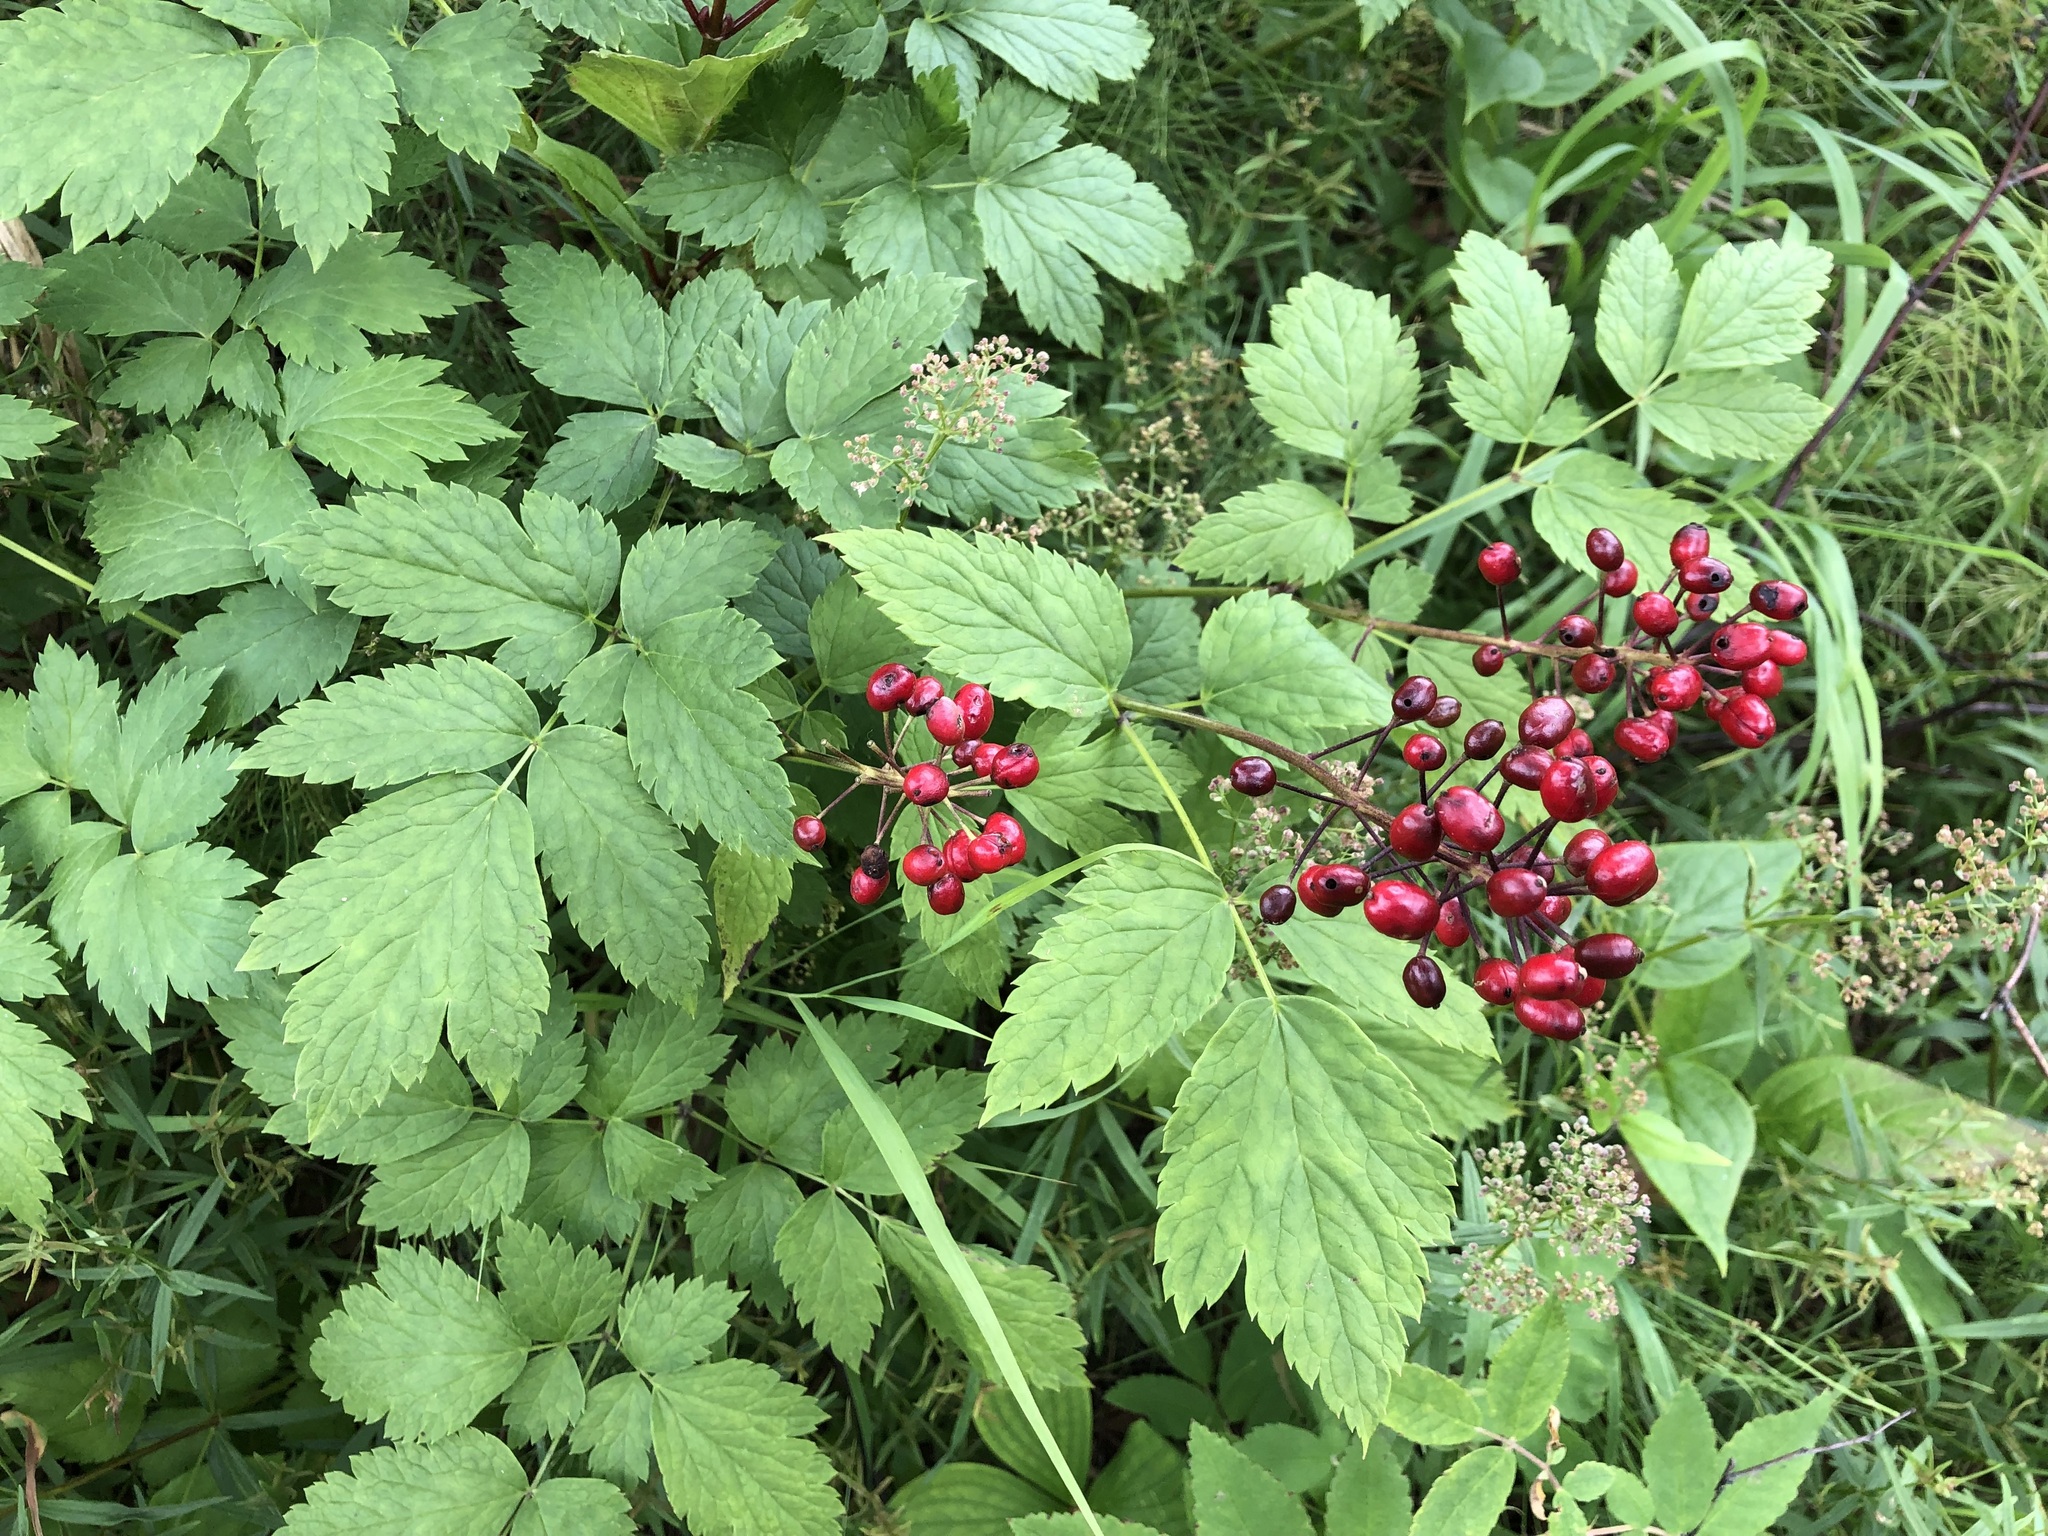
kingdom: Plantae
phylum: Tracheophyta
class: Magnoliopsida
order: Ranunculales
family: Ranunculaceae
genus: Actaea
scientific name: Actaea rubra
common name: Red baneberry
